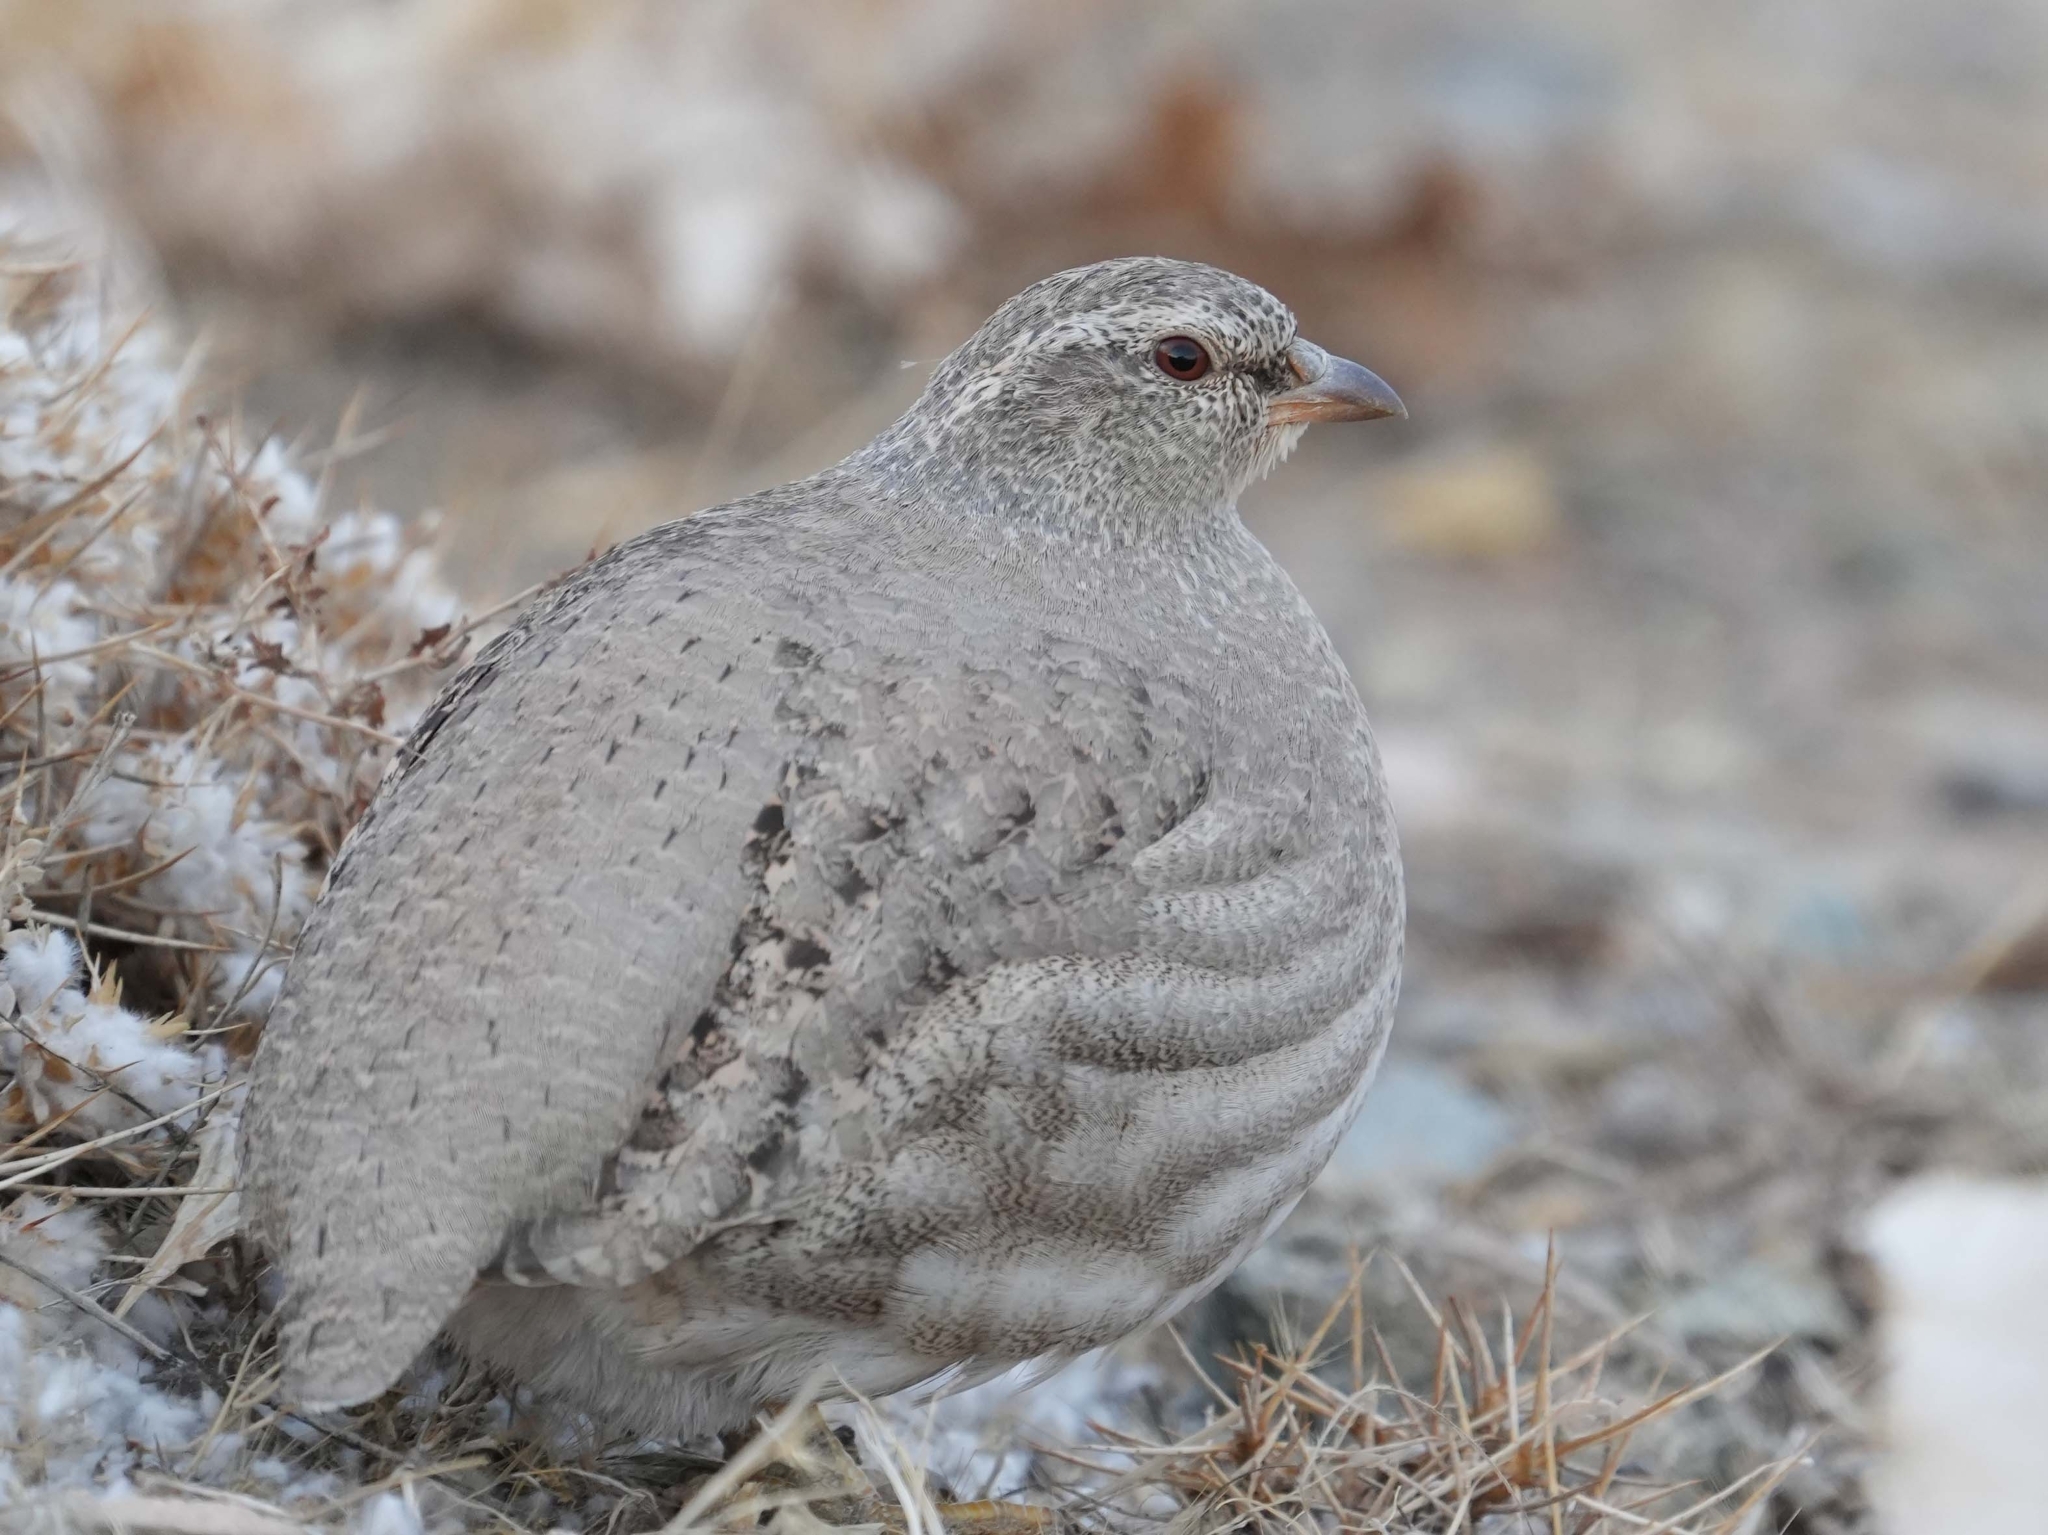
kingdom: Animalia
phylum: Chordata
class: Aves
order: Galliformes
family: Phasianidae
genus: Ammoperdix
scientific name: Ammoperdix griseogularis
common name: See-see partridge
